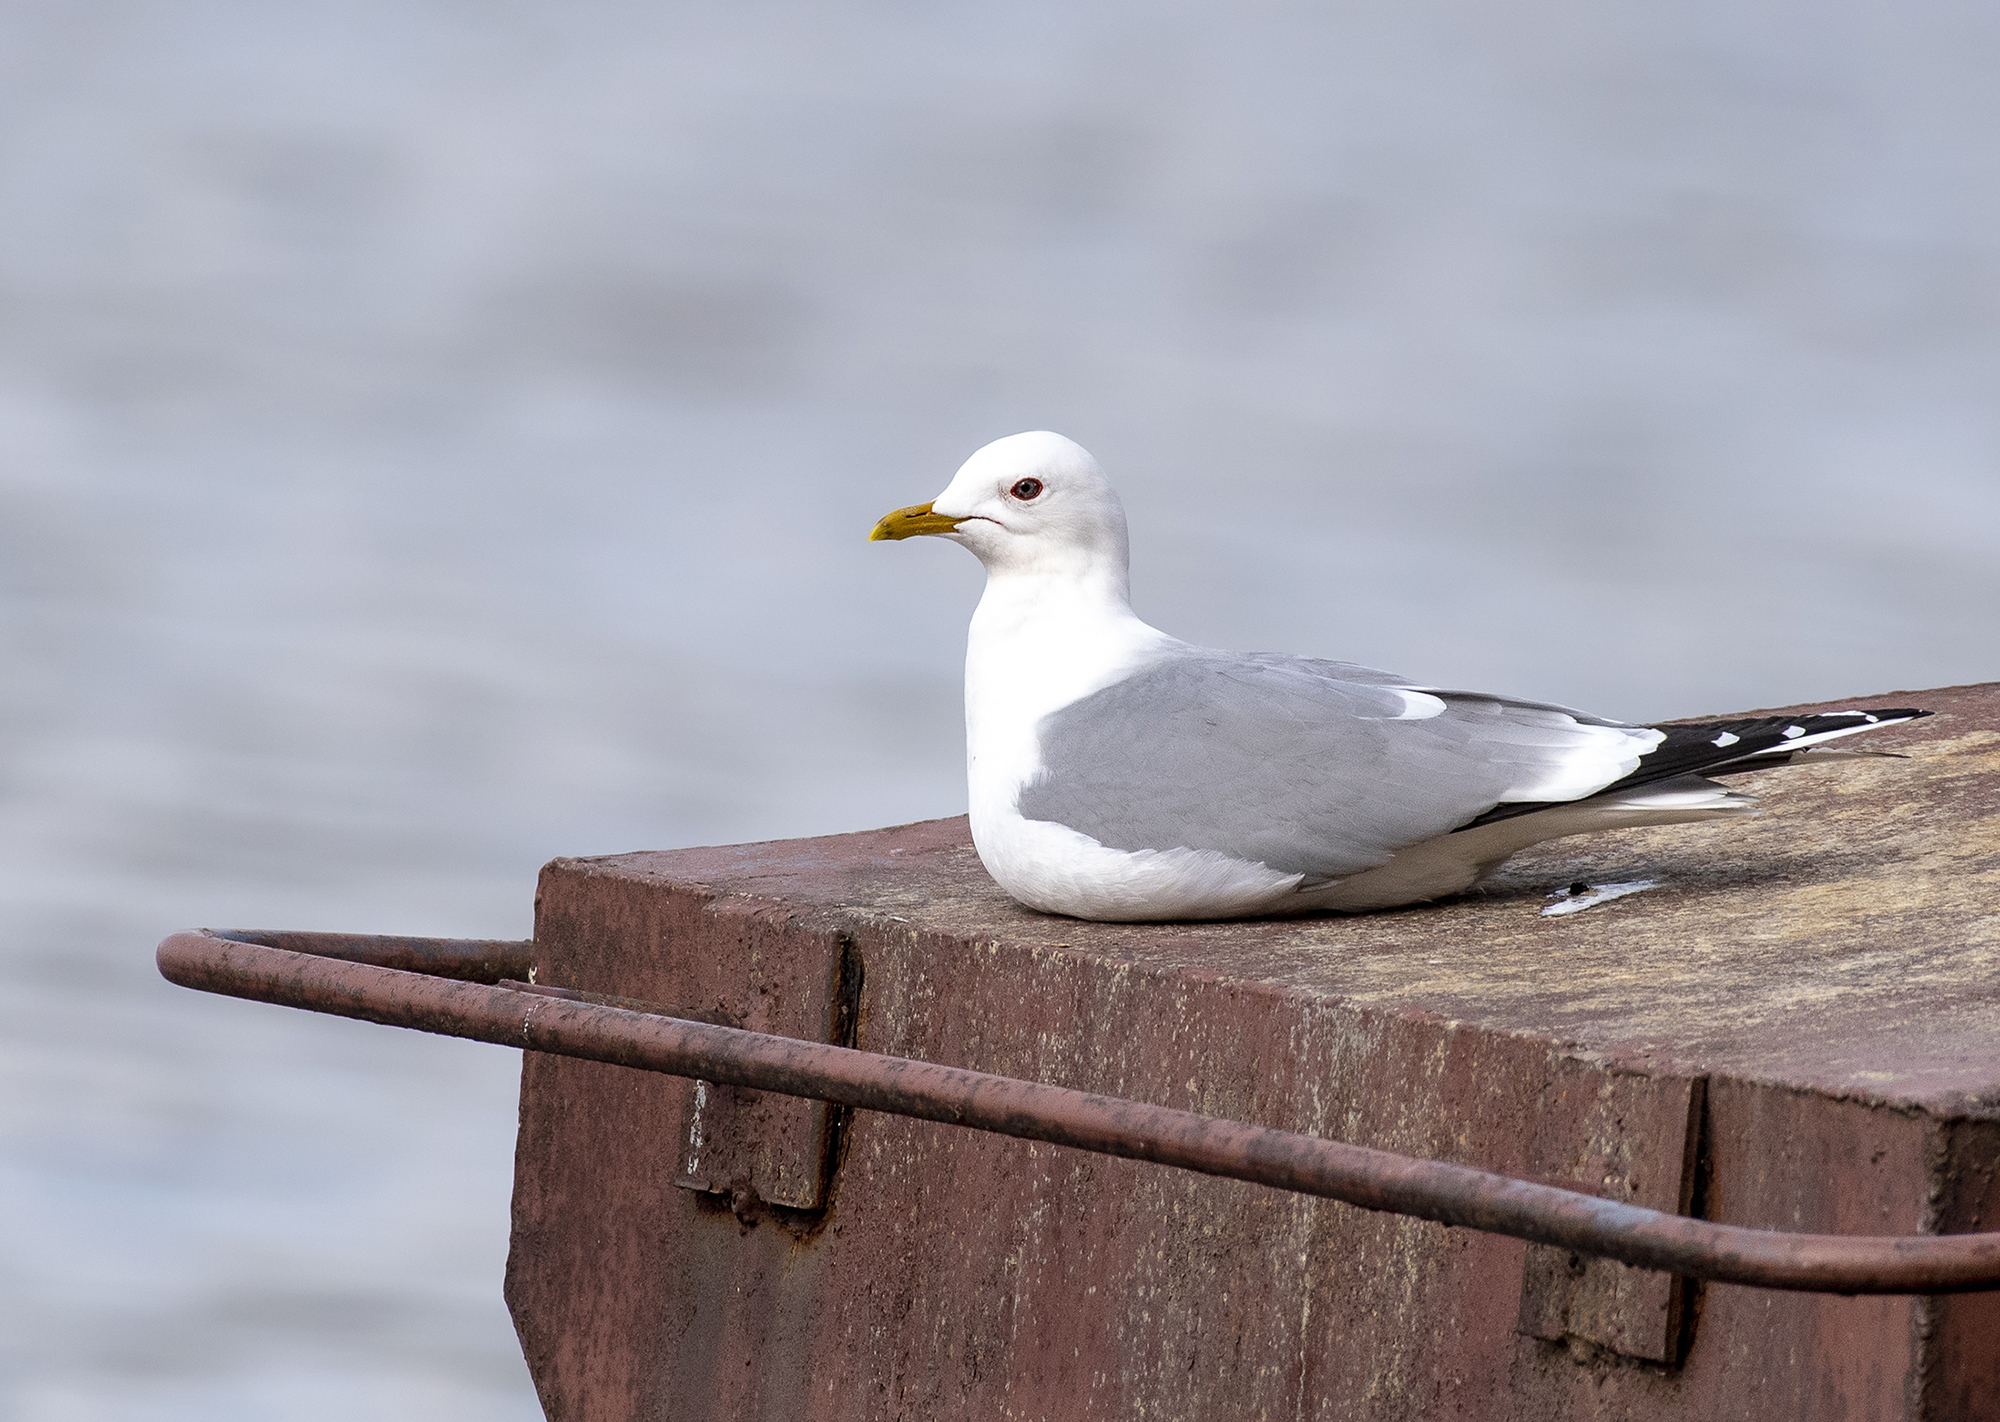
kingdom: Animalia
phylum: Chordata
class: Aves
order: Charadriiformes
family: Laridae
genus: Larus
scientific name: Larus canus
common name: Mew gull
